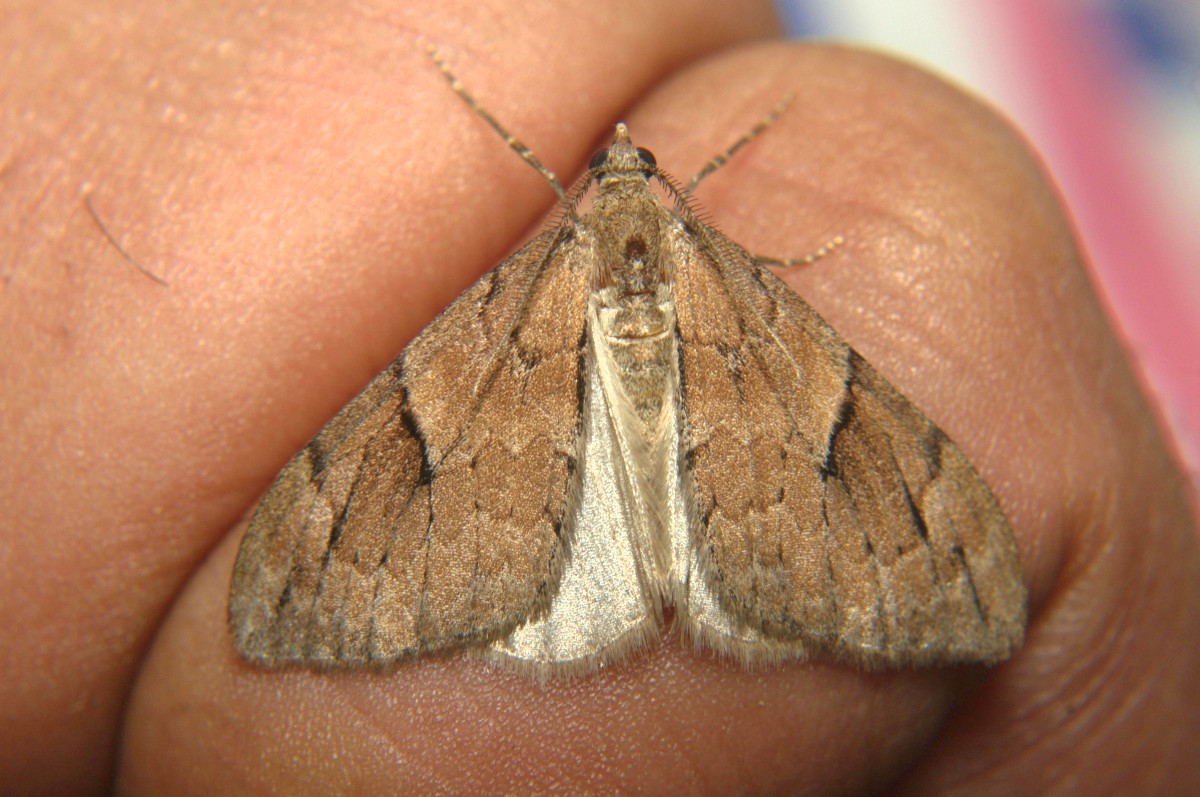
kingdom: Animalia
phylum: Arthropoda
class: Insecta
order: Lepidoptera
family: Geometridae
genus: Heterothera
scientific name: Heterothera etes
